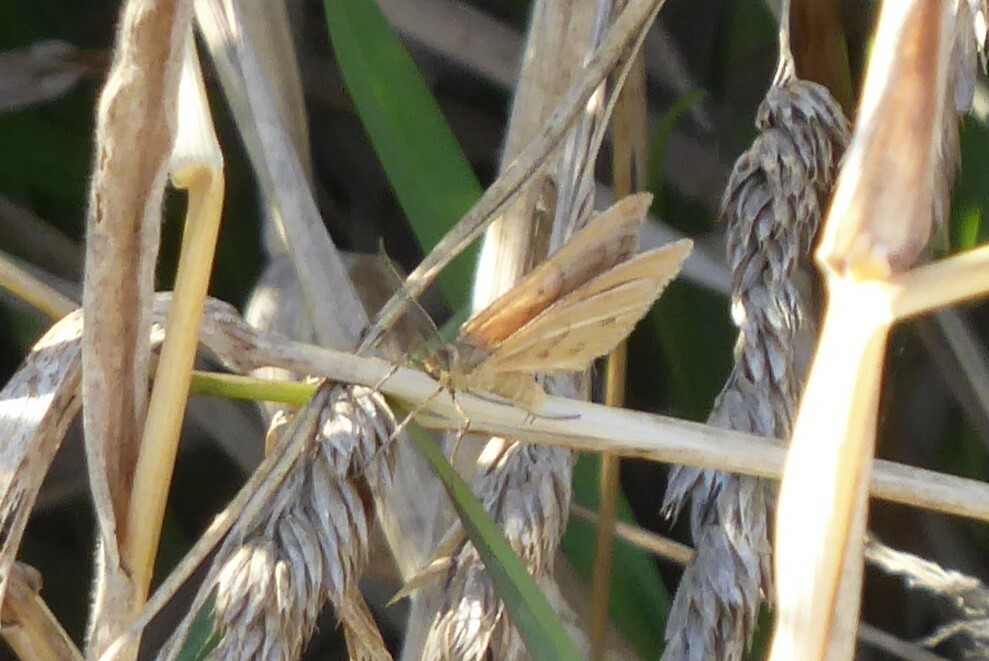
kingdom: Animalia
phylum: Arthropoda
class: Insecta
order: Lepidoptera
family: Geometridae
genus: Asaphodes
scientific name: Asaphodes abrogata
